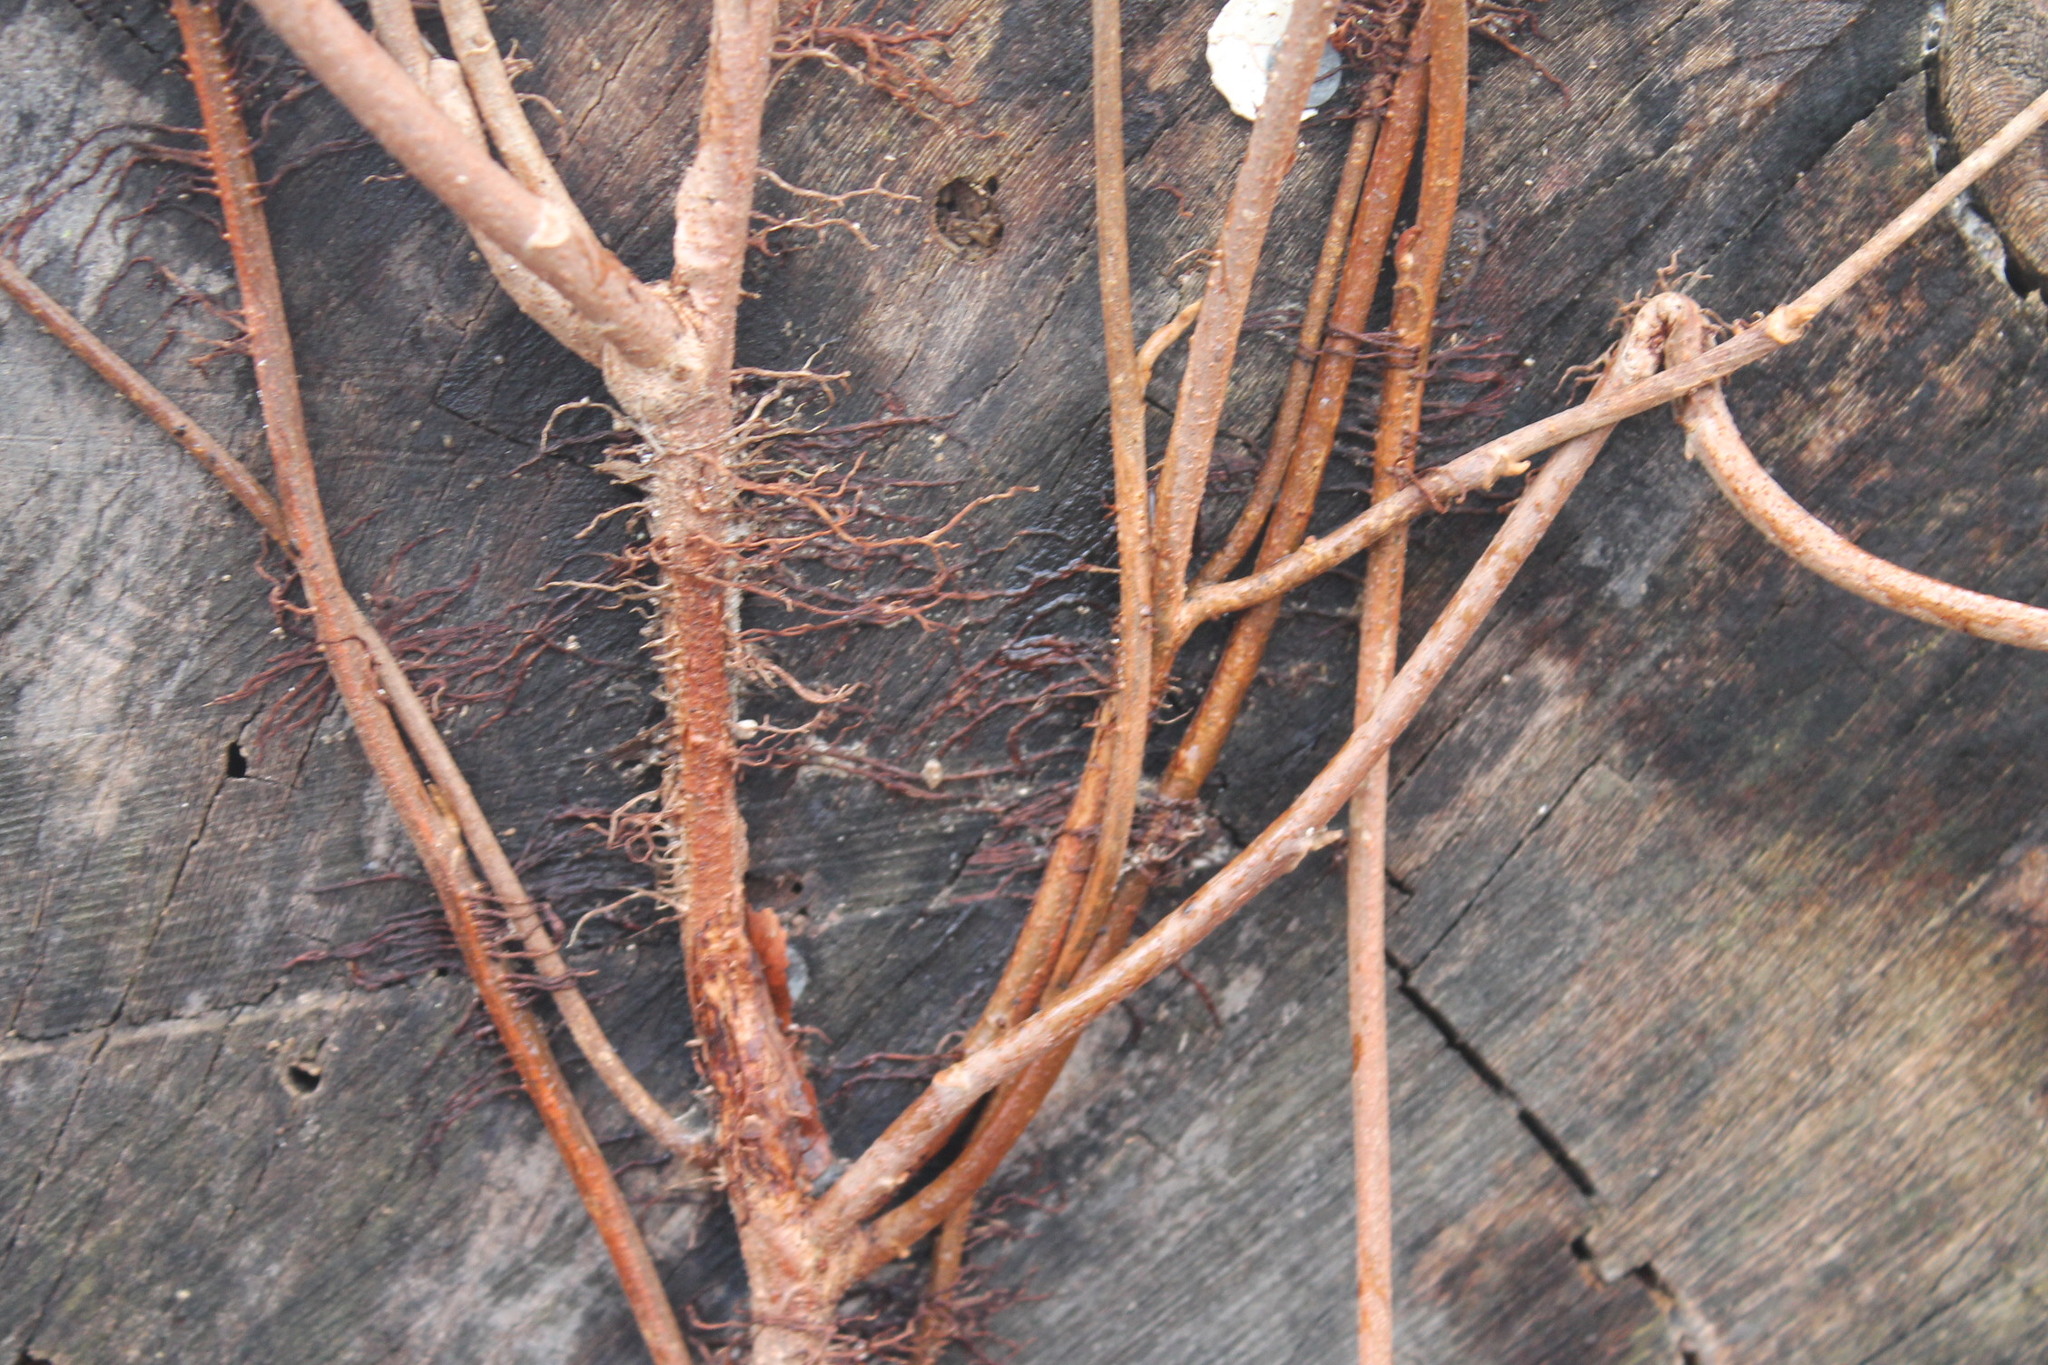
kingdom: Plantae
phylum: Tracheophyta
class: Magnoliopsida
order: Sapindales
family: Anacardiaceae
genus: Toxicodendron
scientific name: Toxicodendron radicans
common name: Poison ivy
